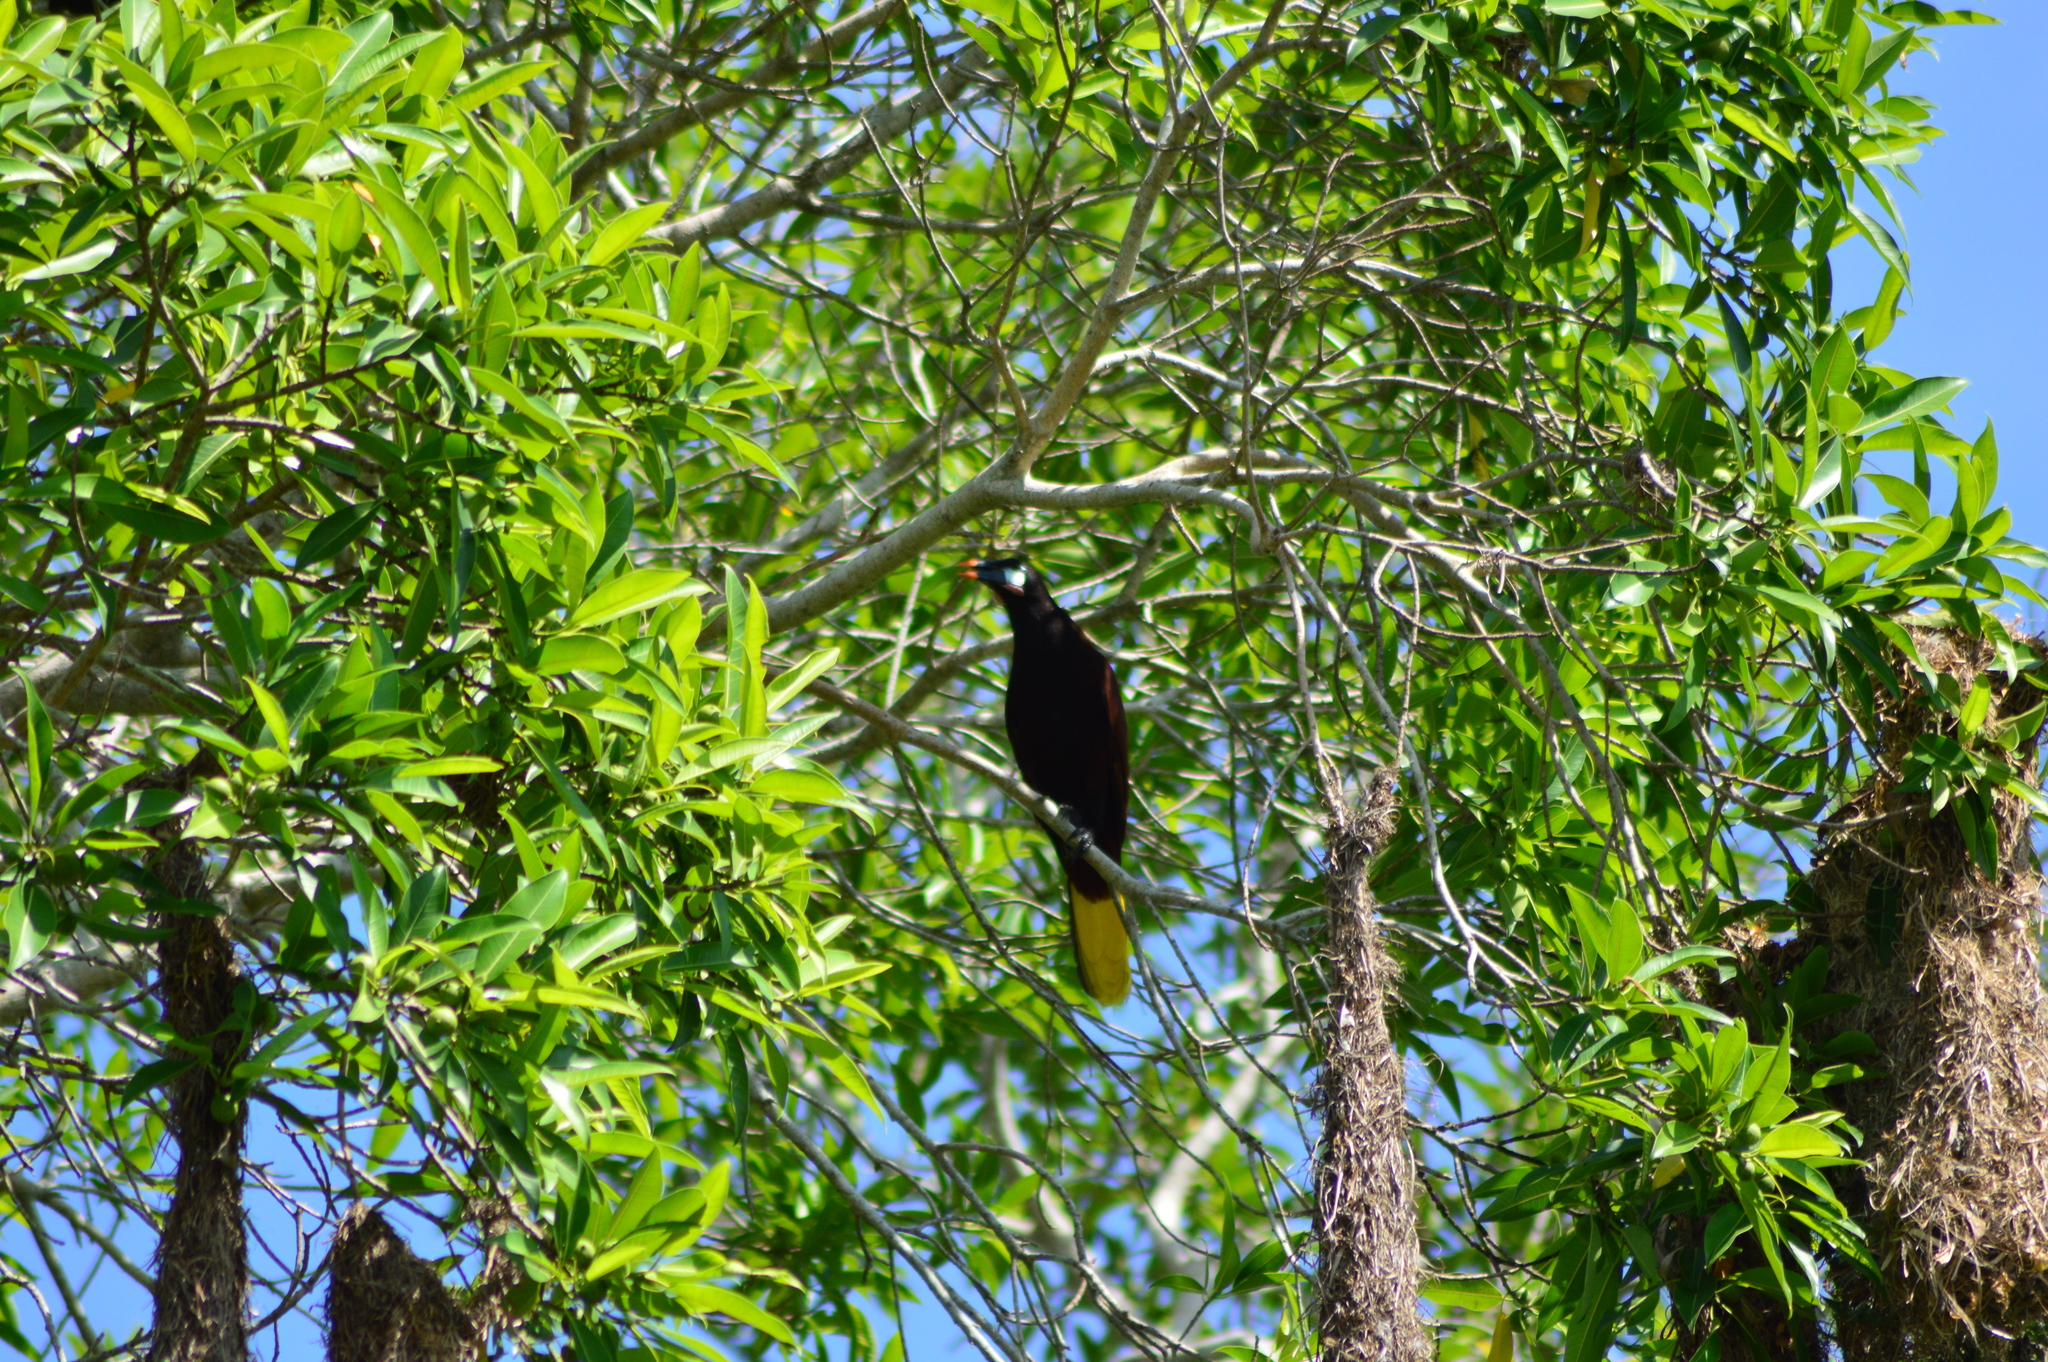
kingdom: Animalia
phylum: Chordata
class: Aves
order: Passeriformes
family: Icteridae
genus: Psarocolius
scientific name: Psarocolius montezuma
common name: Montezuma oropendola
